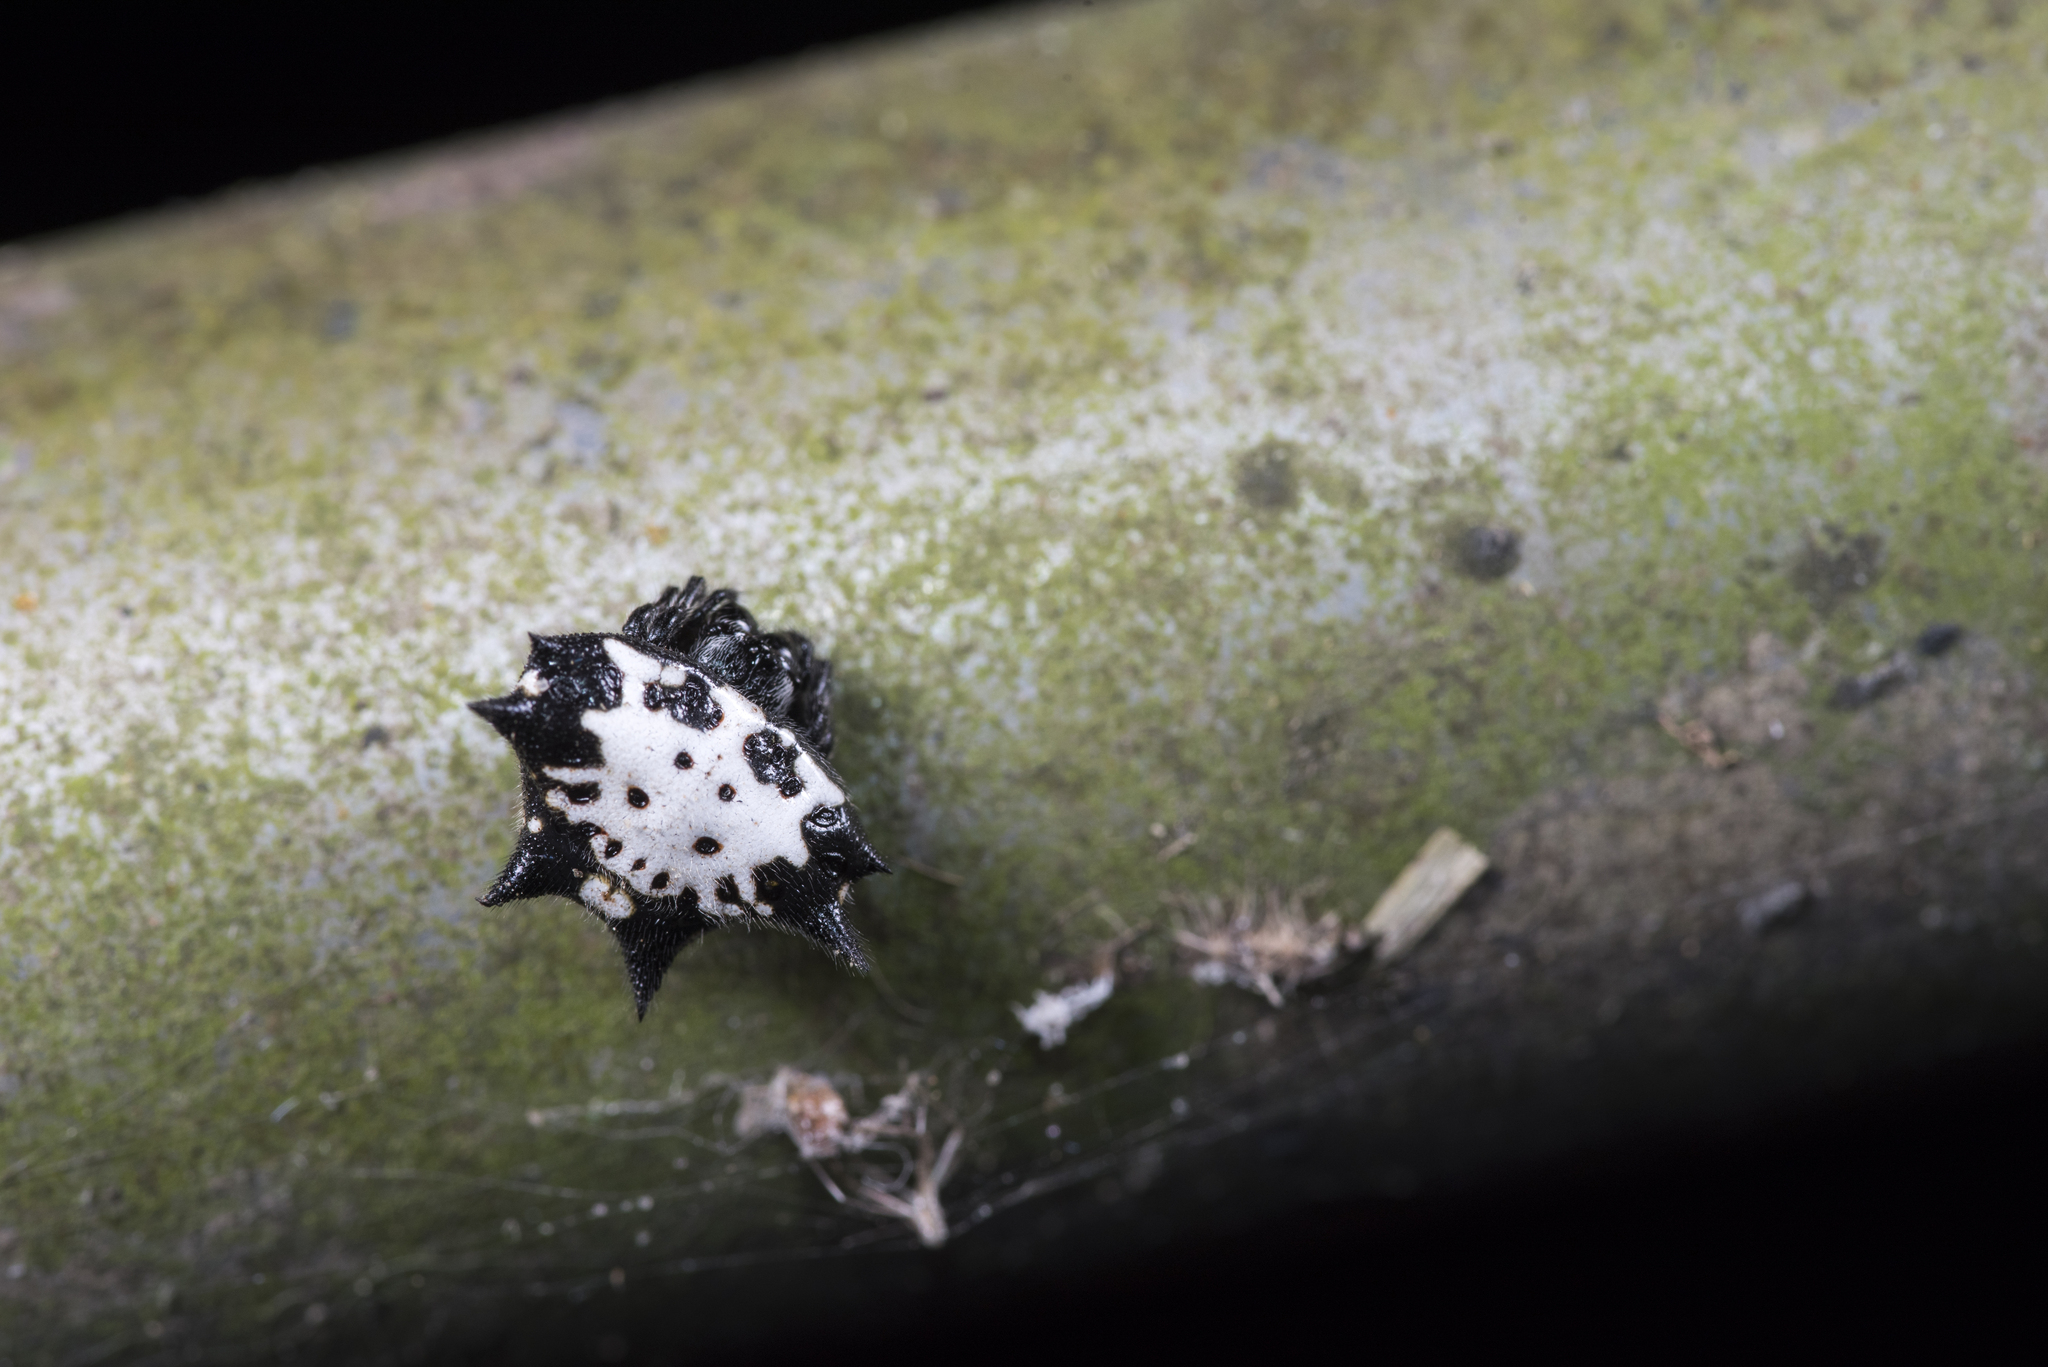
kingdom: Animalia
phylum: Arthropoda
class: Arachnida
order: Araneae
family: Araneidae
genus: Gasteracantha
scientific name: Gasteracantha kuhli
